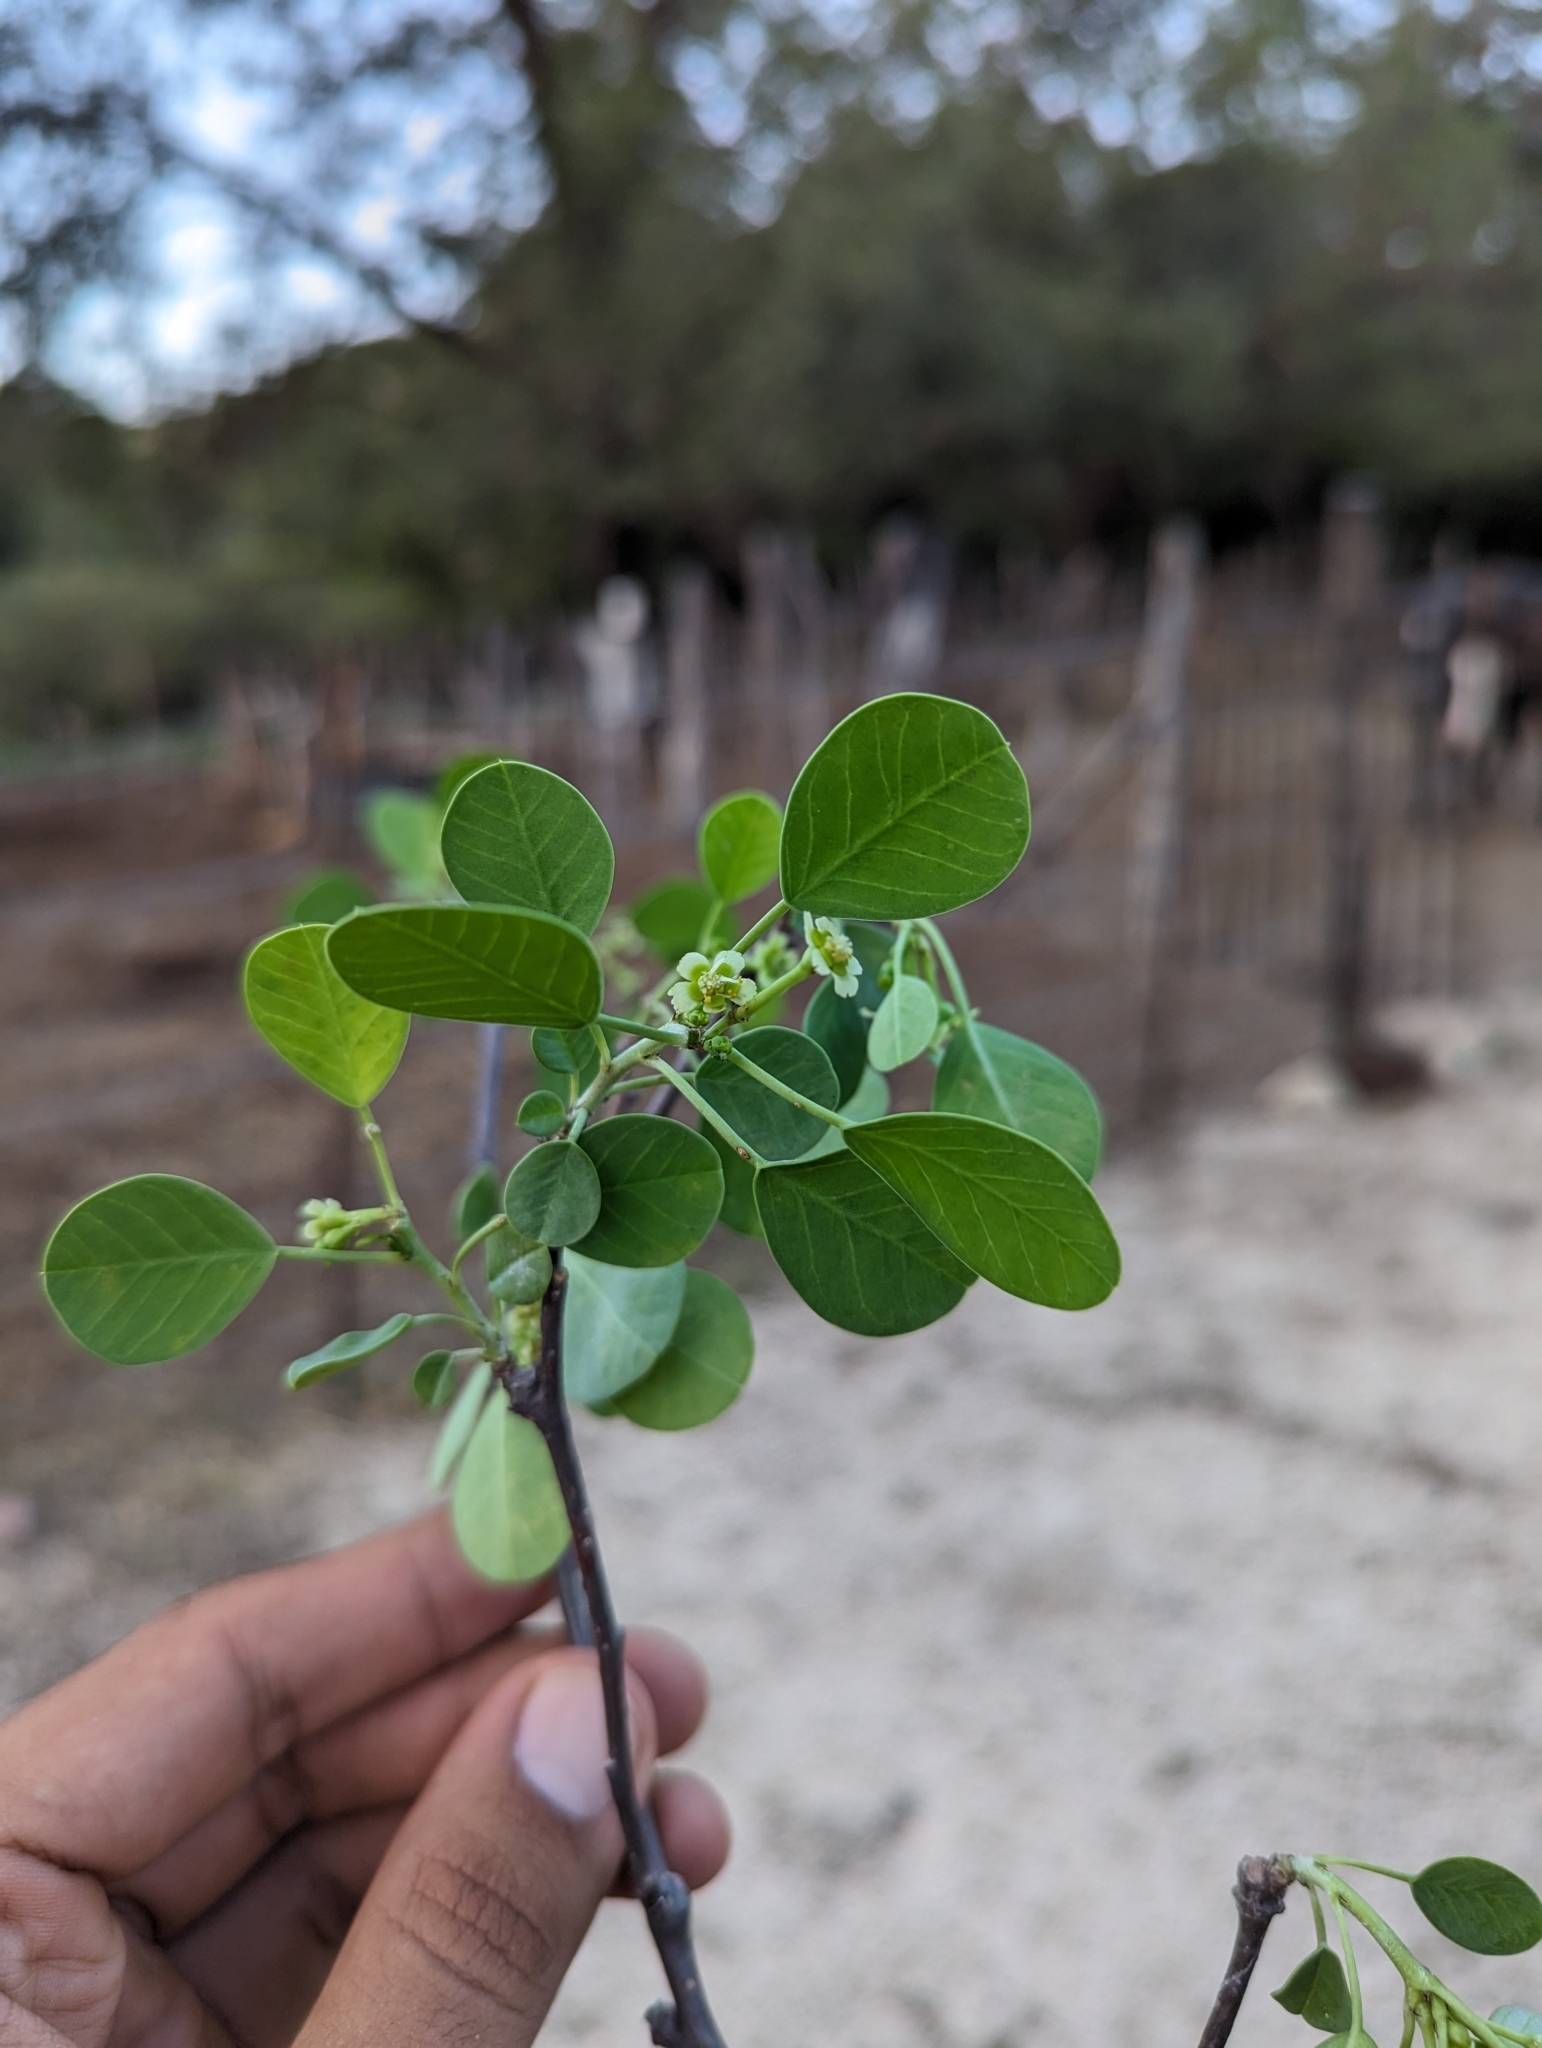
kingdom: Plantae
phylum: Tracheophyta
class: Magnoliopsida
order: Malpighiales
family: Euphorbiaceae
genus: Euphorbia
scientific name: Euphorbia hindsiana
